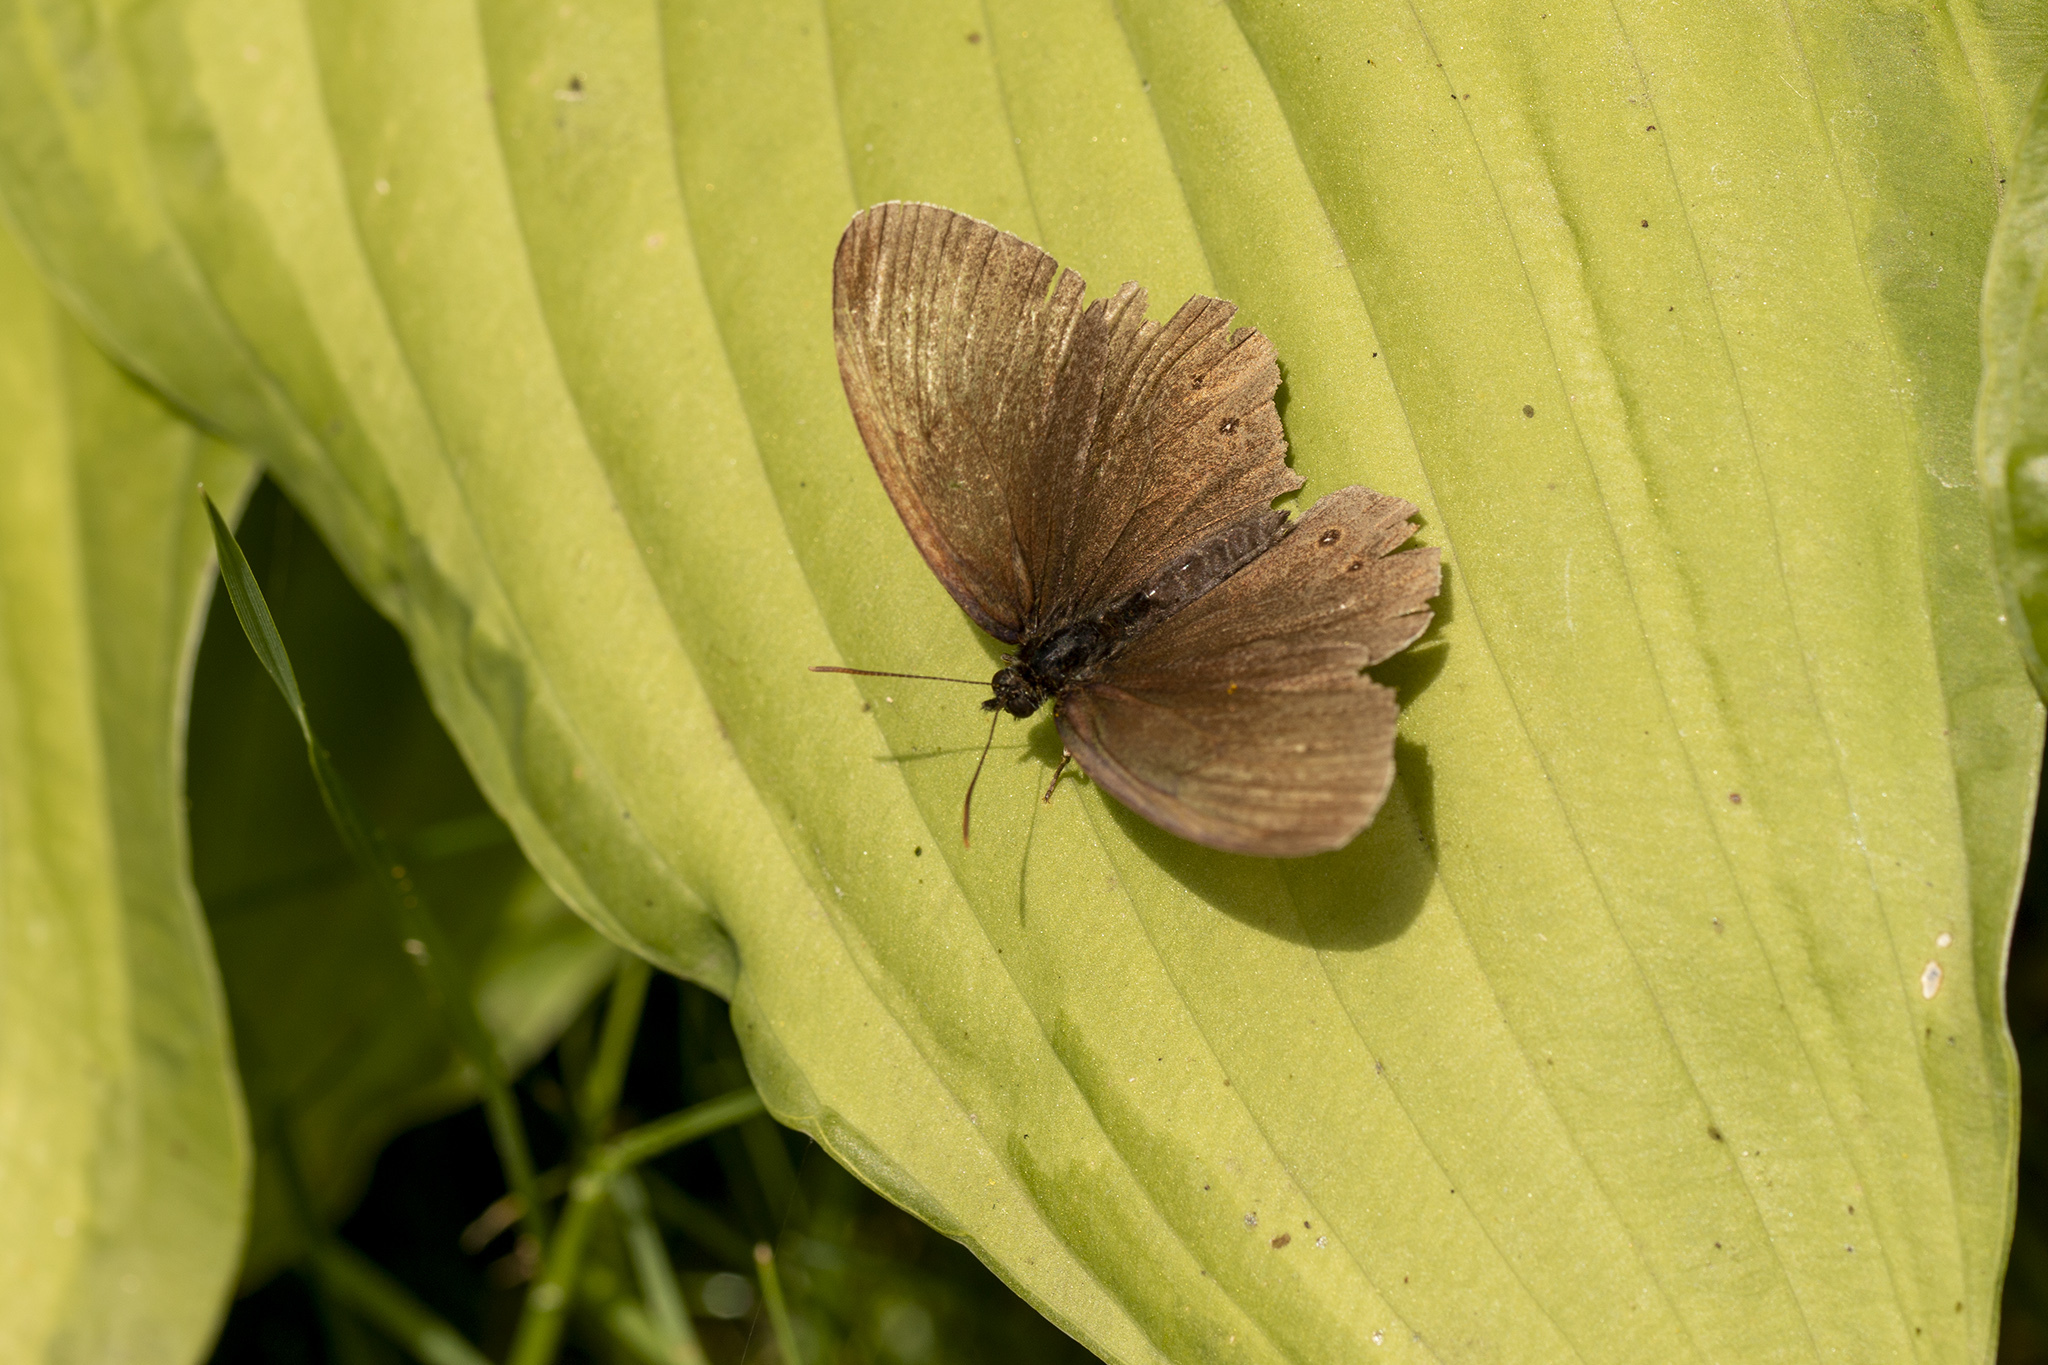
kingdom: Animalia
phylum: Arthropoda
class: Insecta
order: Lepidoptera
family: Nymphalidae
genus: Aphantopus
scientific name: Aphantopus hyperantus
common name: Ringlet
